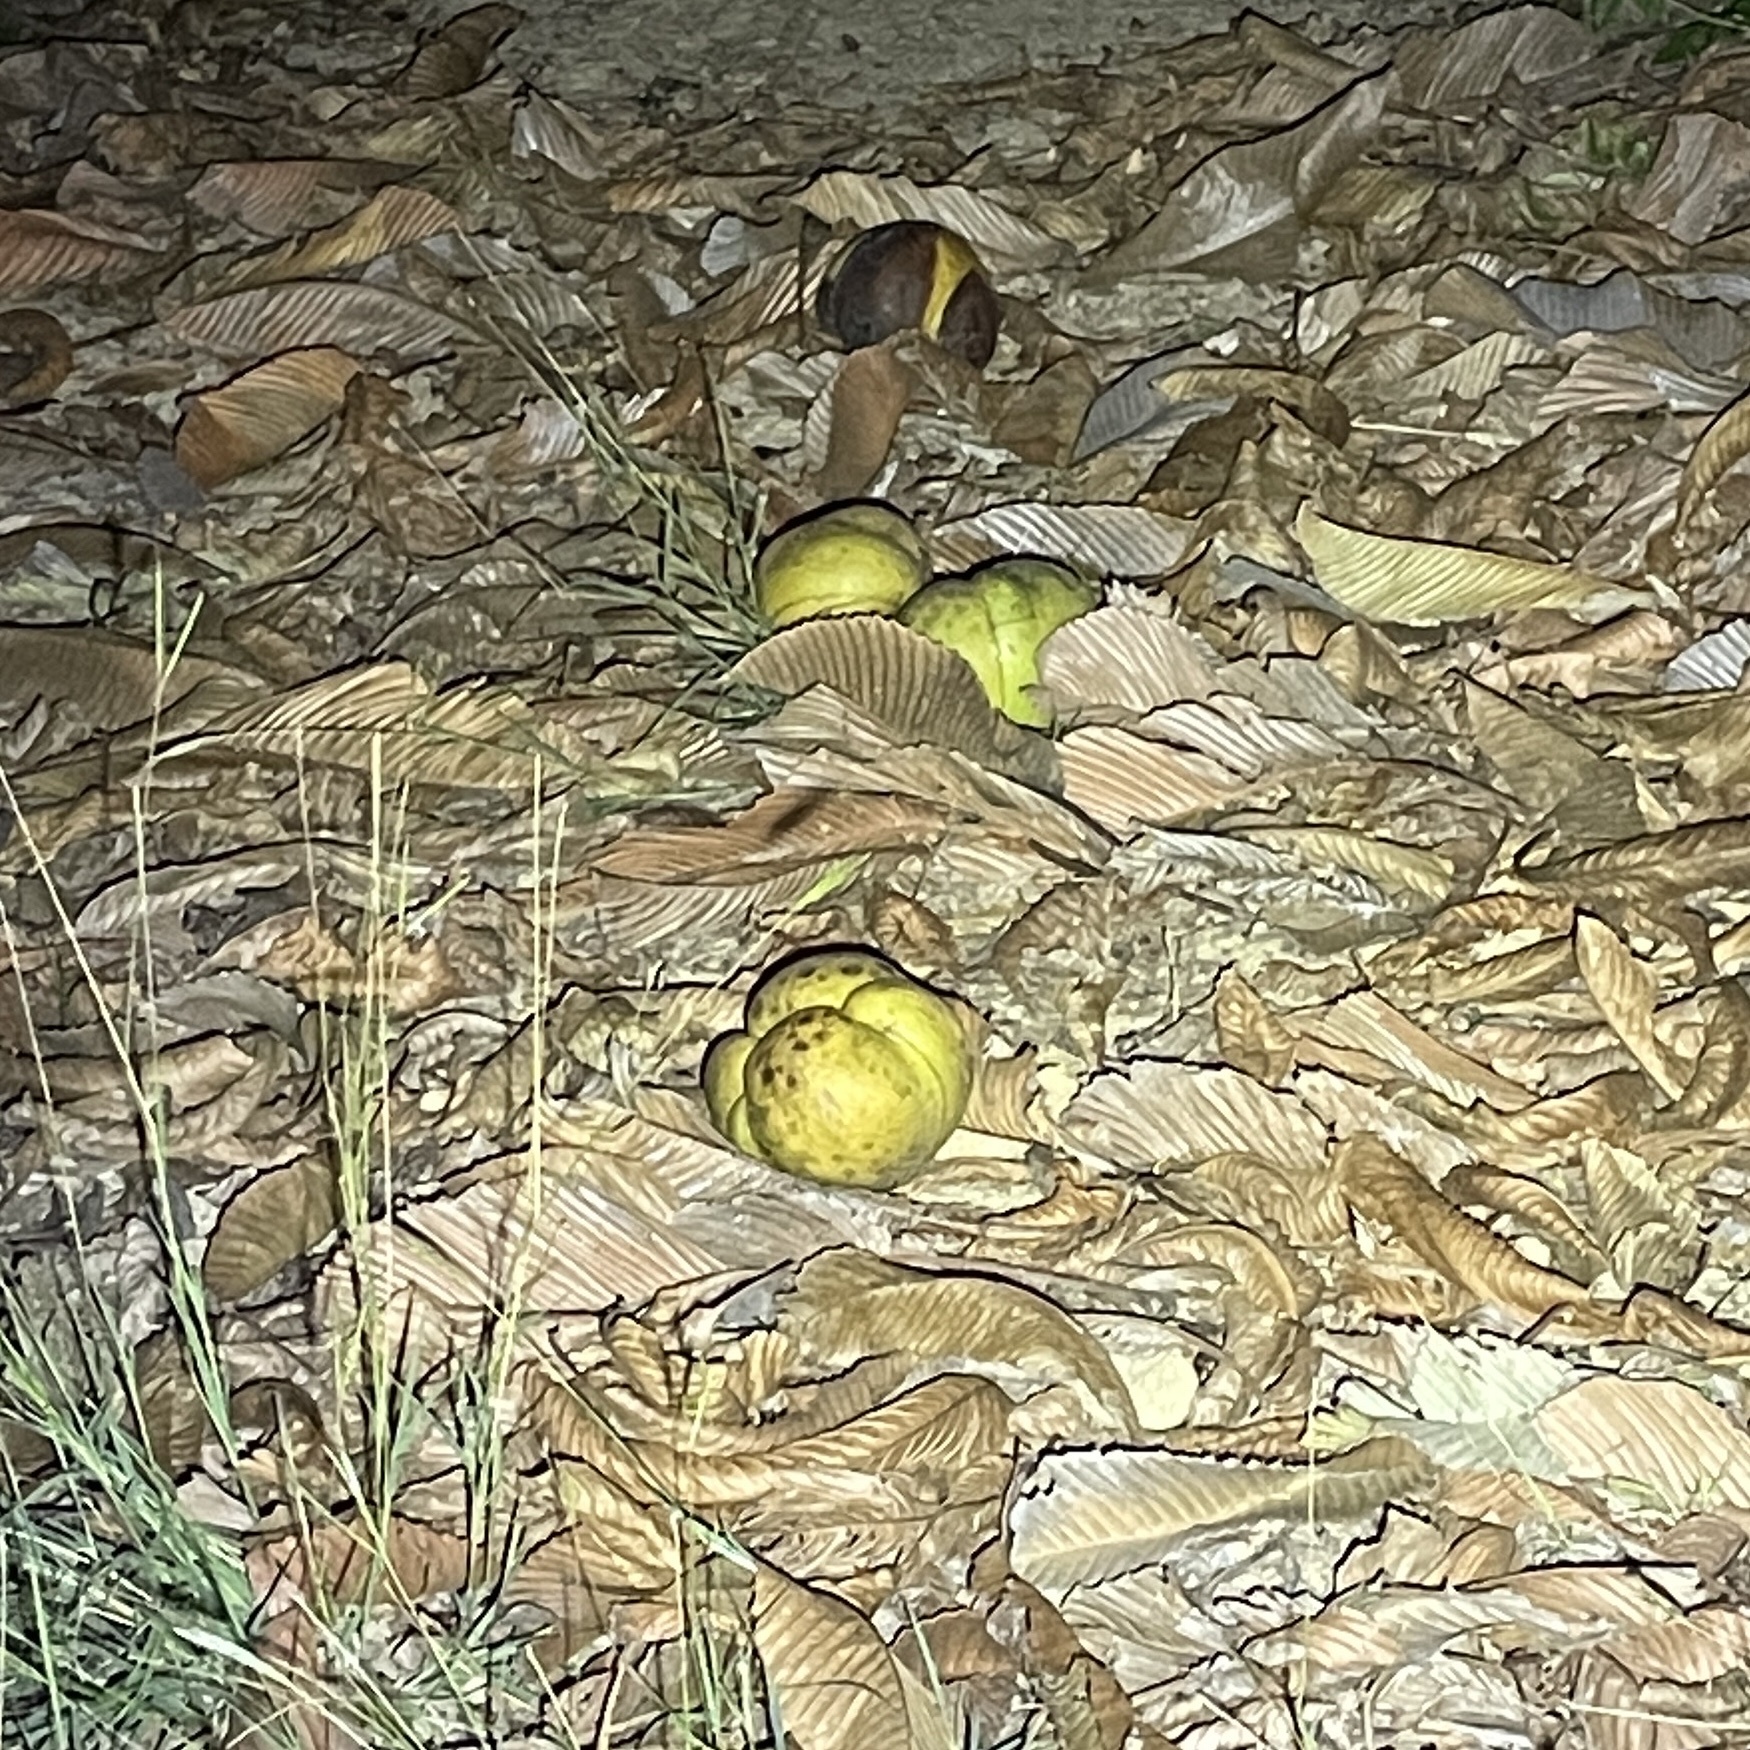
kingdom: Plantae
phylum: Tracheophyta
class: Magnoliopsida
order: Dilleniales
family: Dilleniaceae
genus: Dillenia
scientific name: Dillenia indica
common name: Elephant apple
